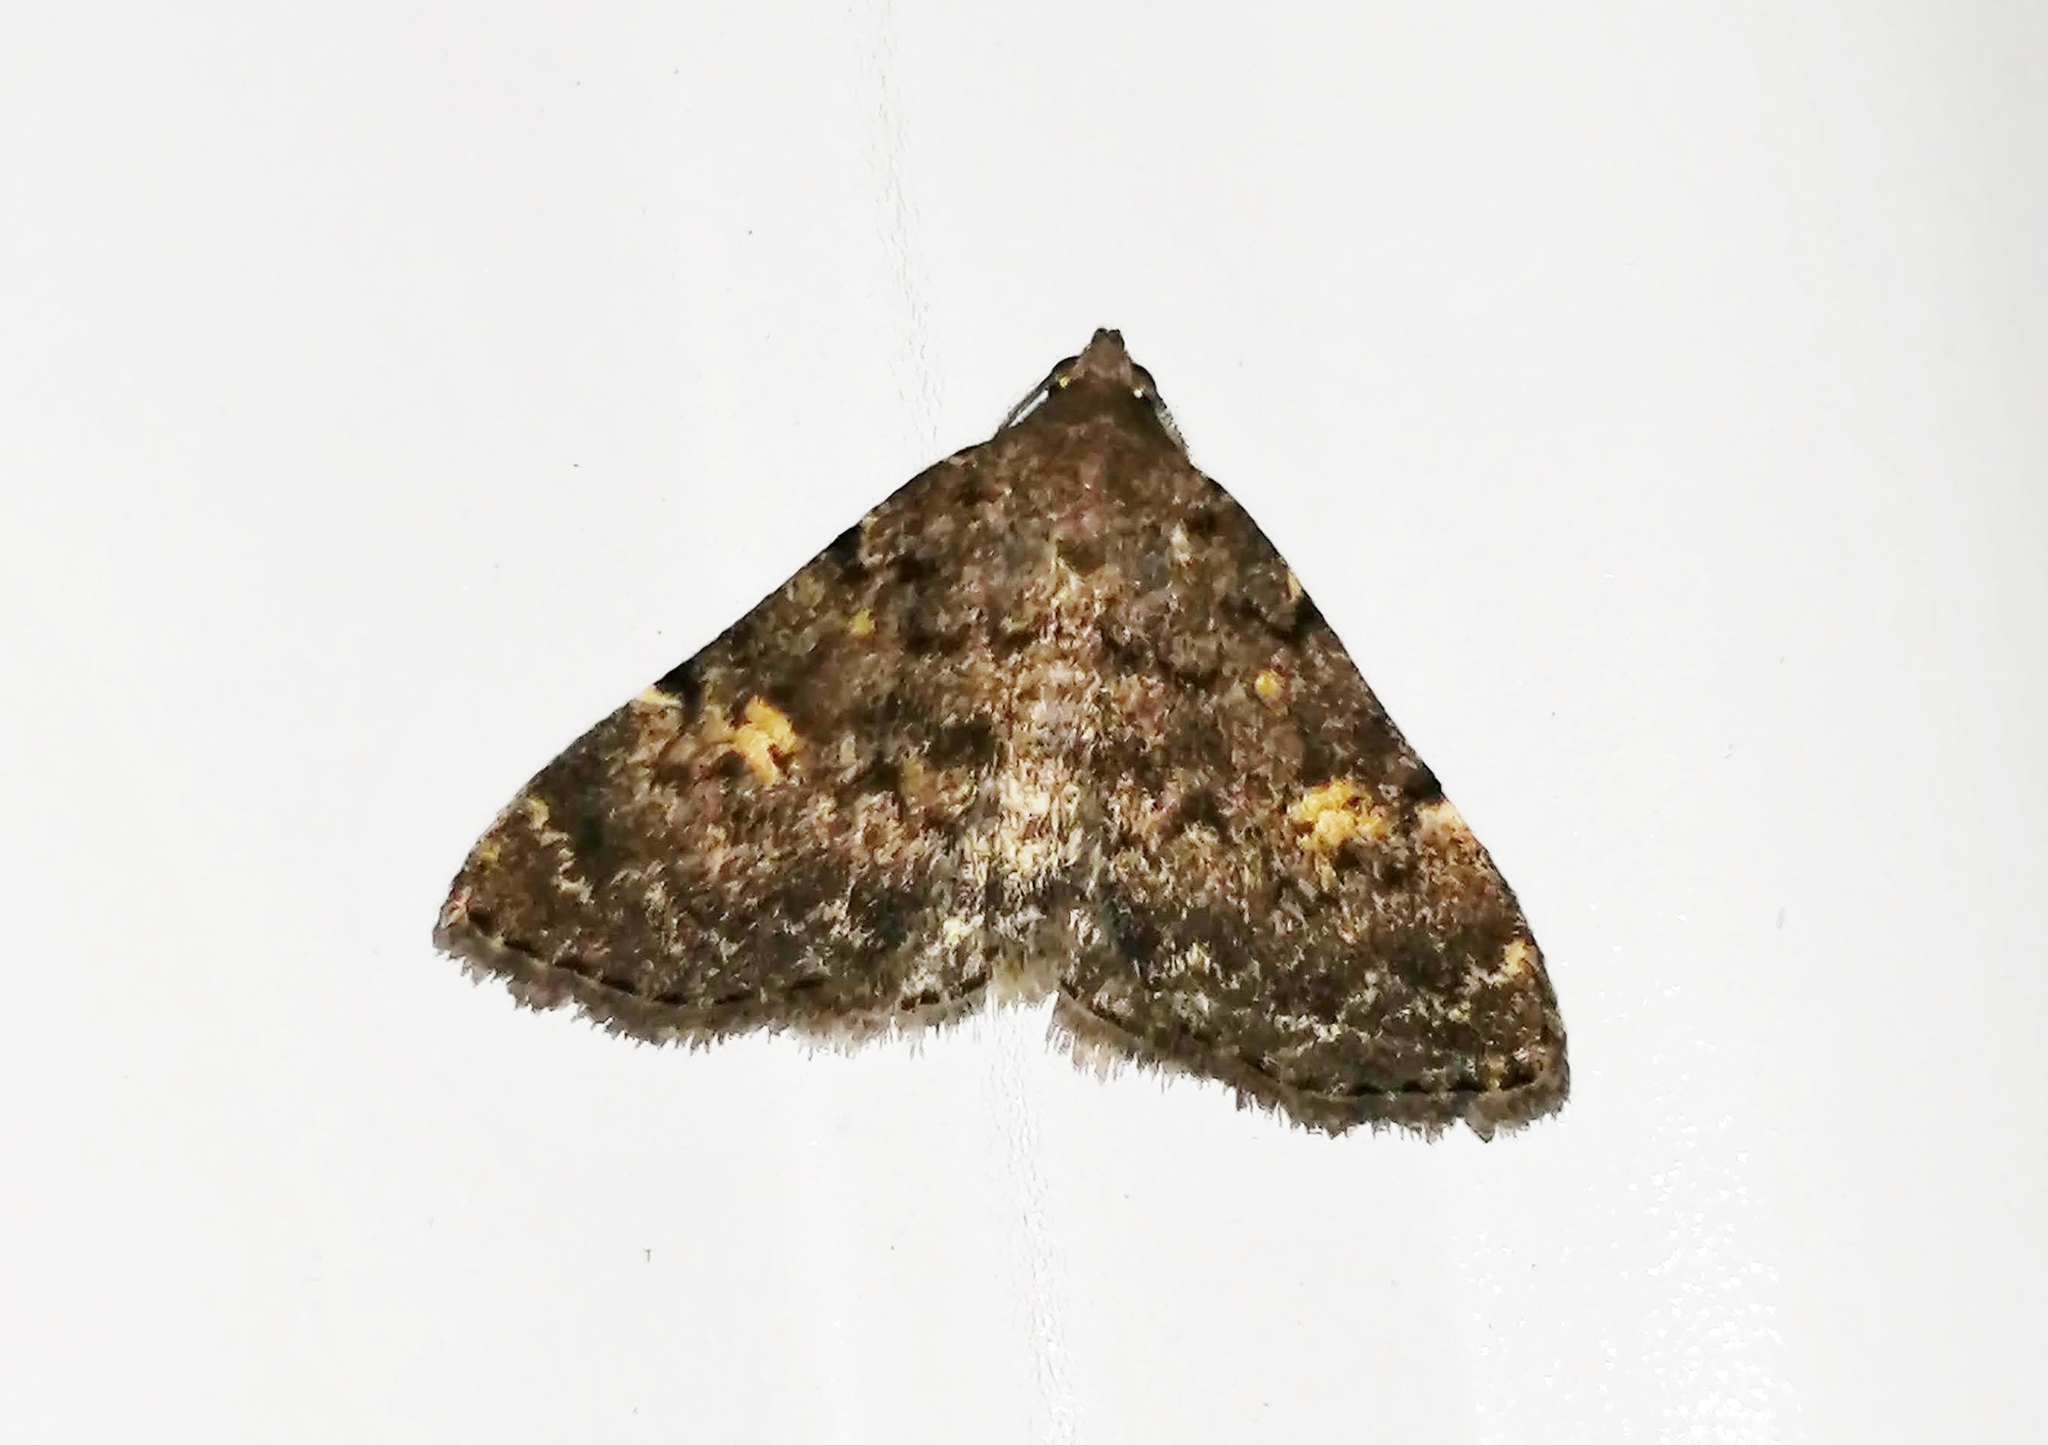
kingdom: Animalia
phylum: Arthropoda
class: Insecta
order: Lepidoptera
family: Erebidae
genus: Idia
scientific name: Idia aemula
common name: Common idia moth
